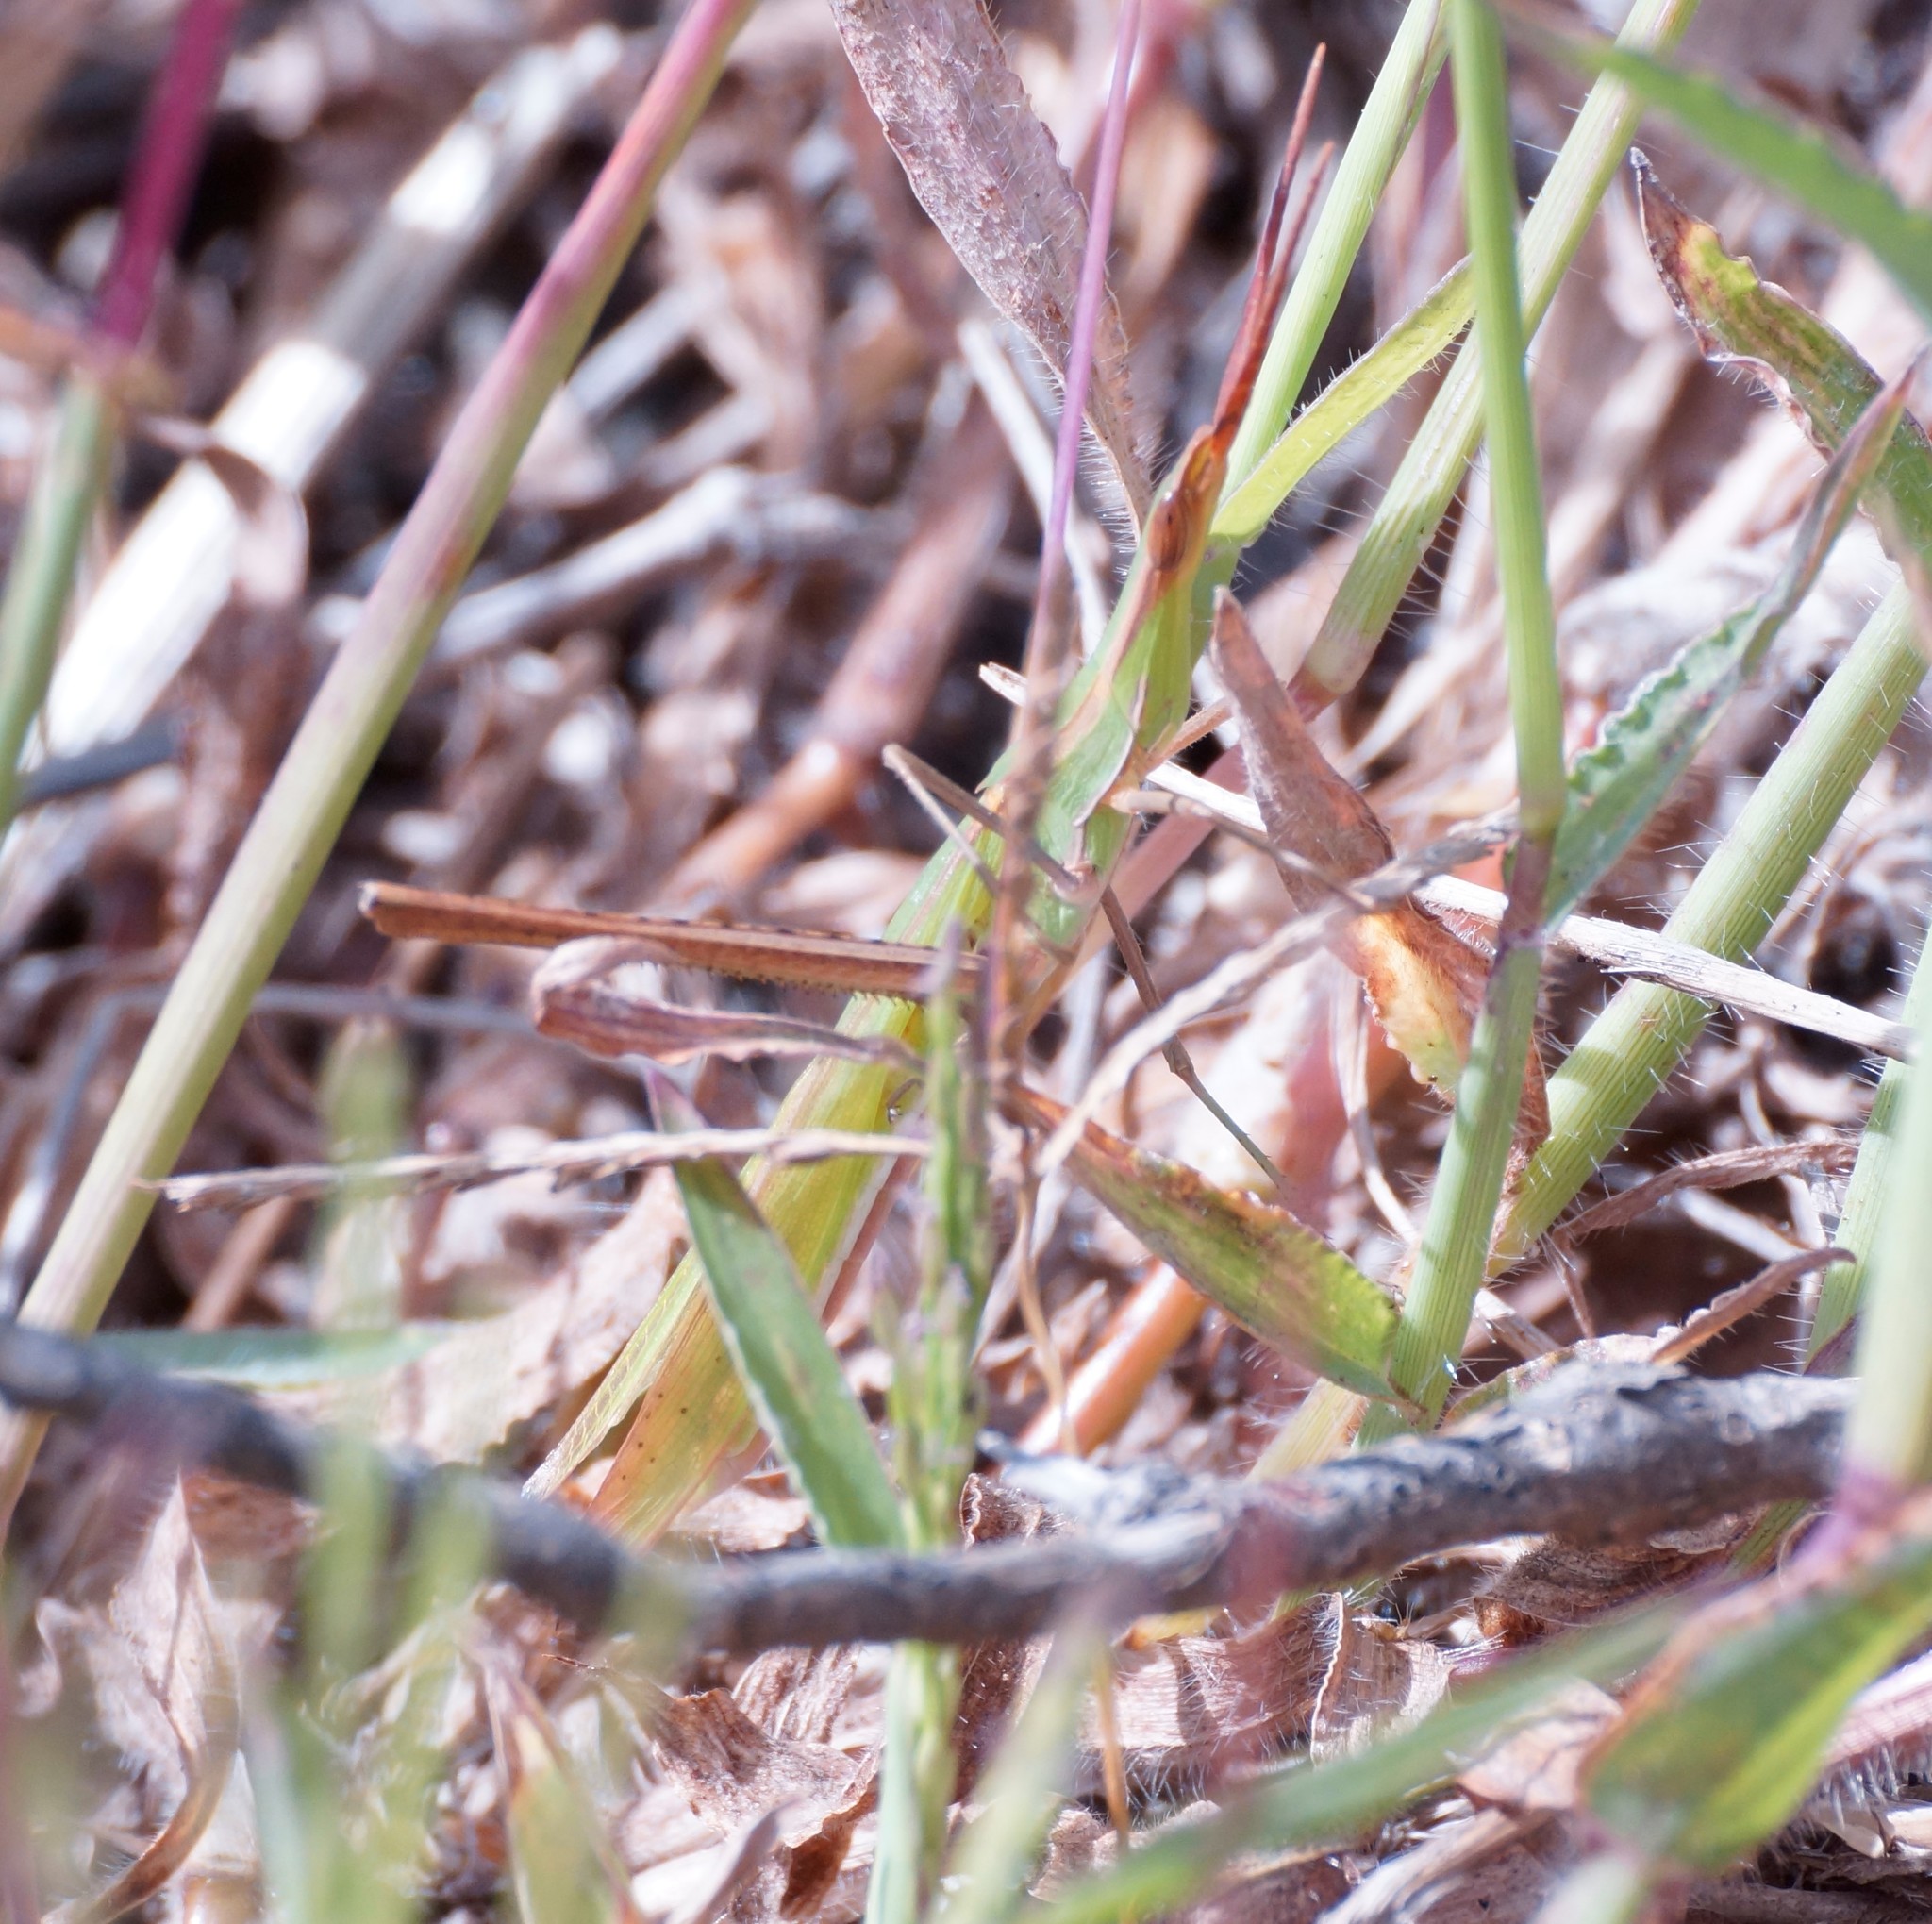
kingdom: Animalia
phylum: Arthropoda
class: Insecta
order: Orthoptera
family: Acrididae
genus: Acrida
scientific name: Acrida conica
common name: Giant green slantface
